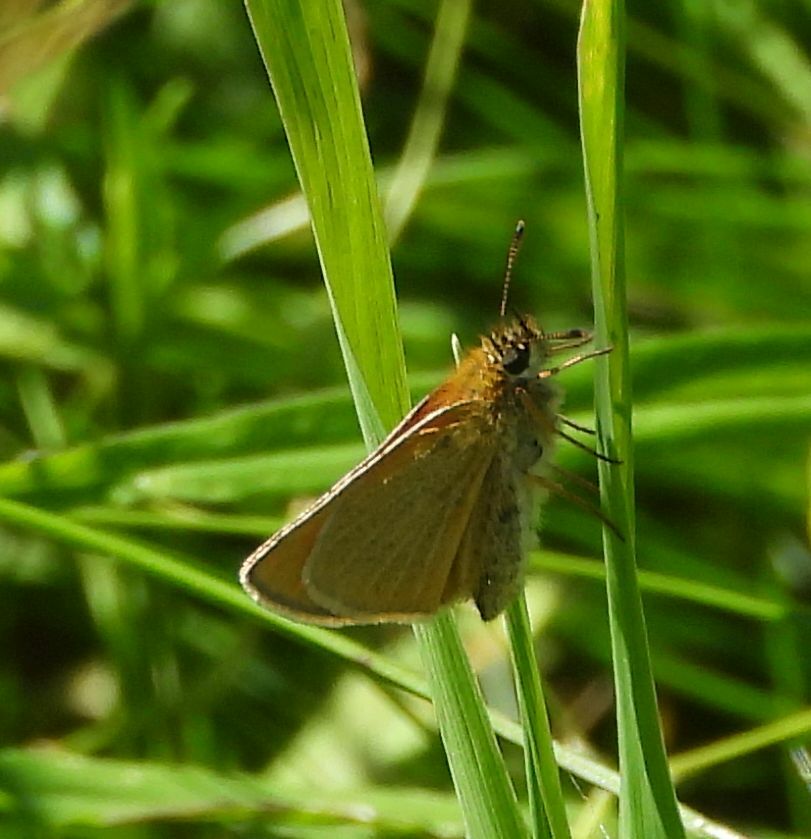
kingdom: Animalia
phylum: Arthropoda
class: Insecta
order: Lepidoptera
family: Hesperiidae
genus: Thymelicus
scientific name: Thymelicus lineola
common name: Essex skipper
